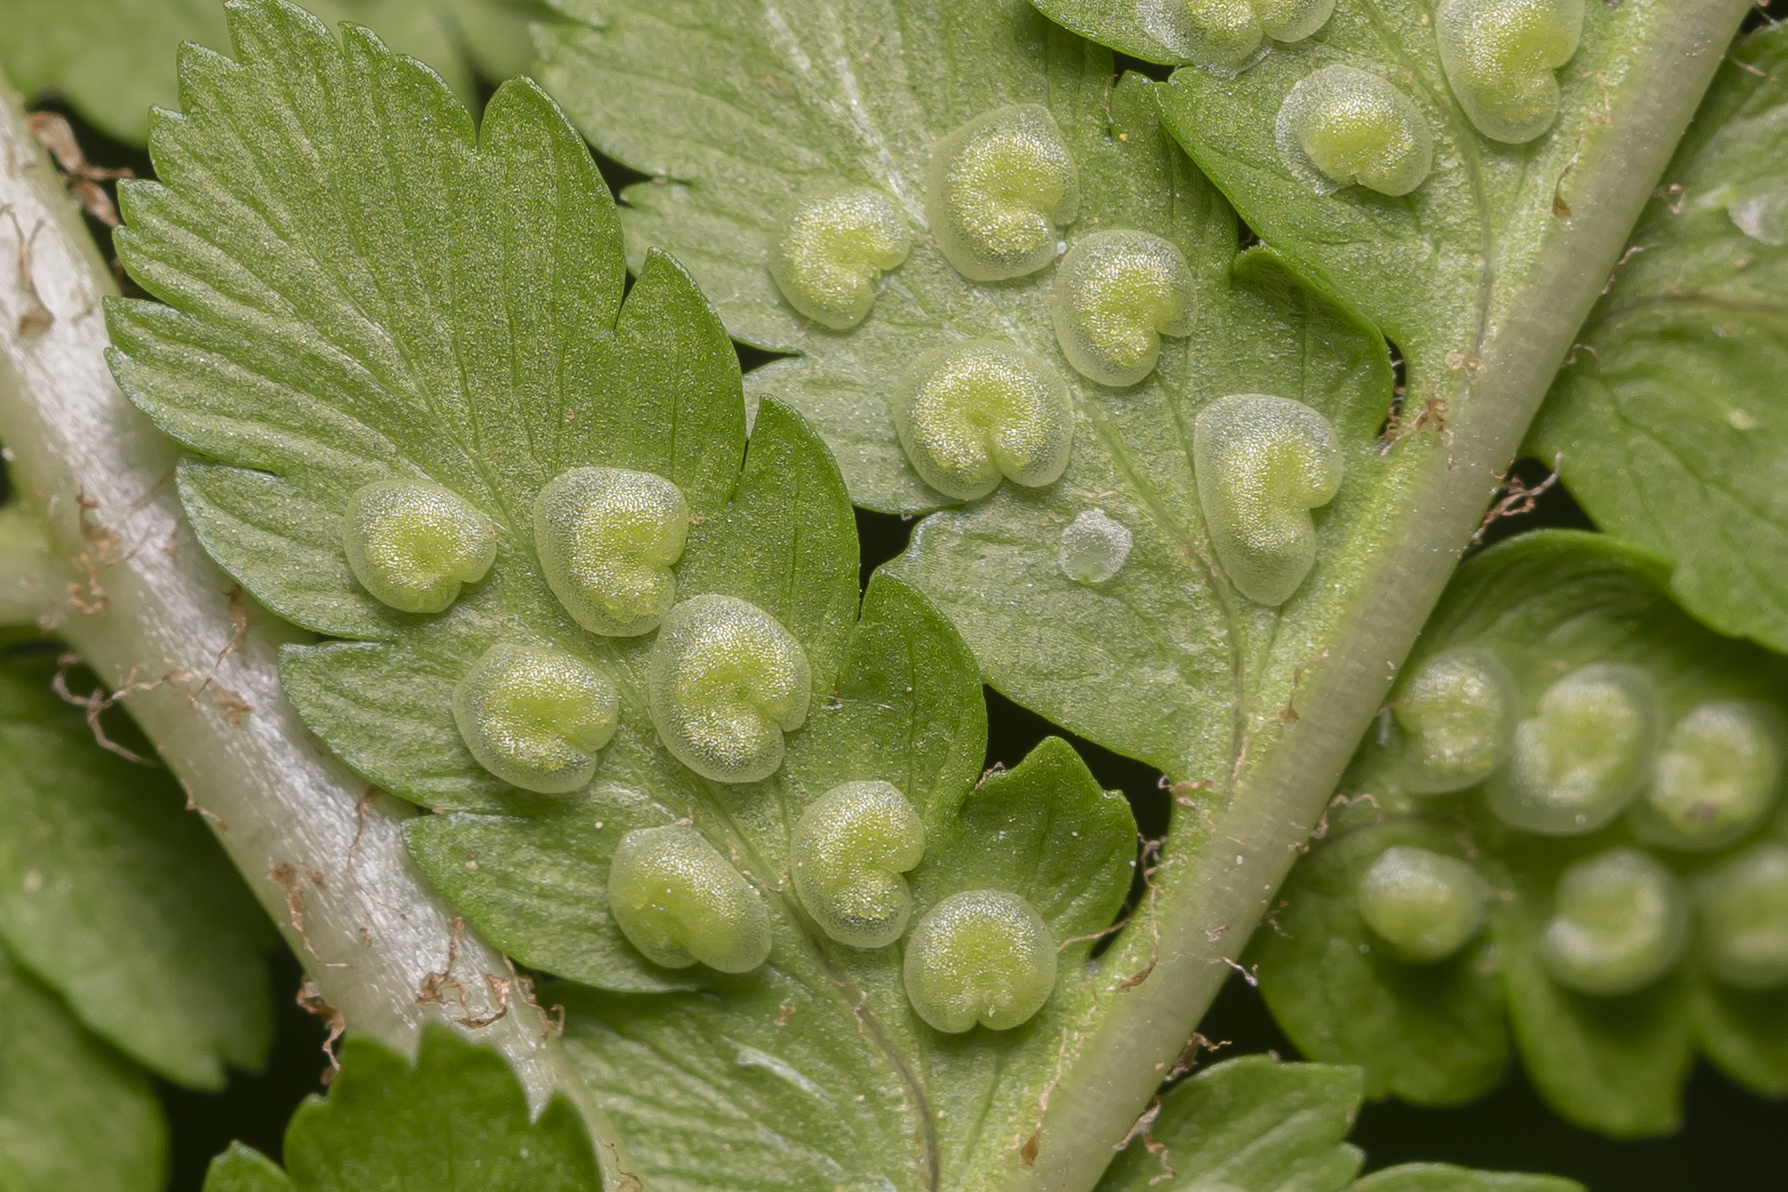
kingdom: Plantae
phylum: Tracheophyta
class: Polypodiopsida
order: Polypodiales
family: Dryopteridaceae
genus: Dryopteris
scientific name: Dryopteris filix-mas
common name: Male fern
